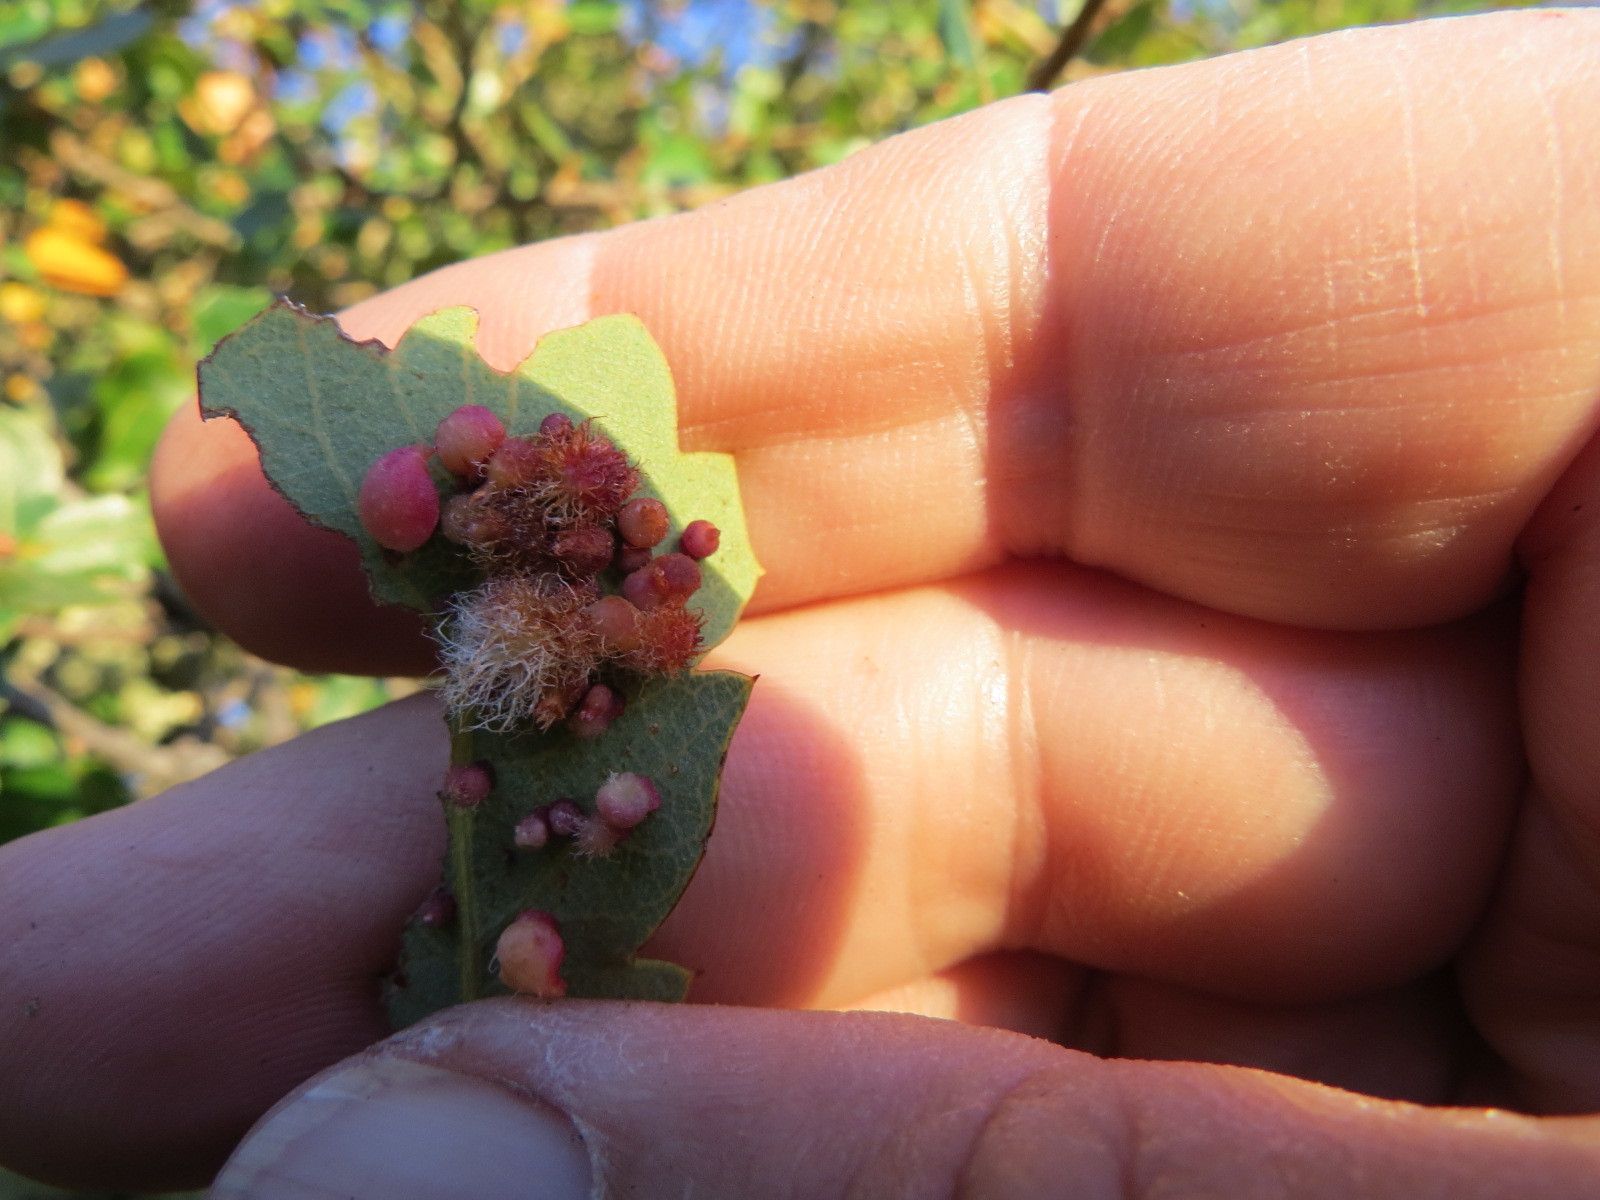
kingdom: Animalia
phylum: Arthropoda
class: Insecta
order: Hymenoptera
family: Cynipidae
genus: Andricus
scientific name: Andricus
